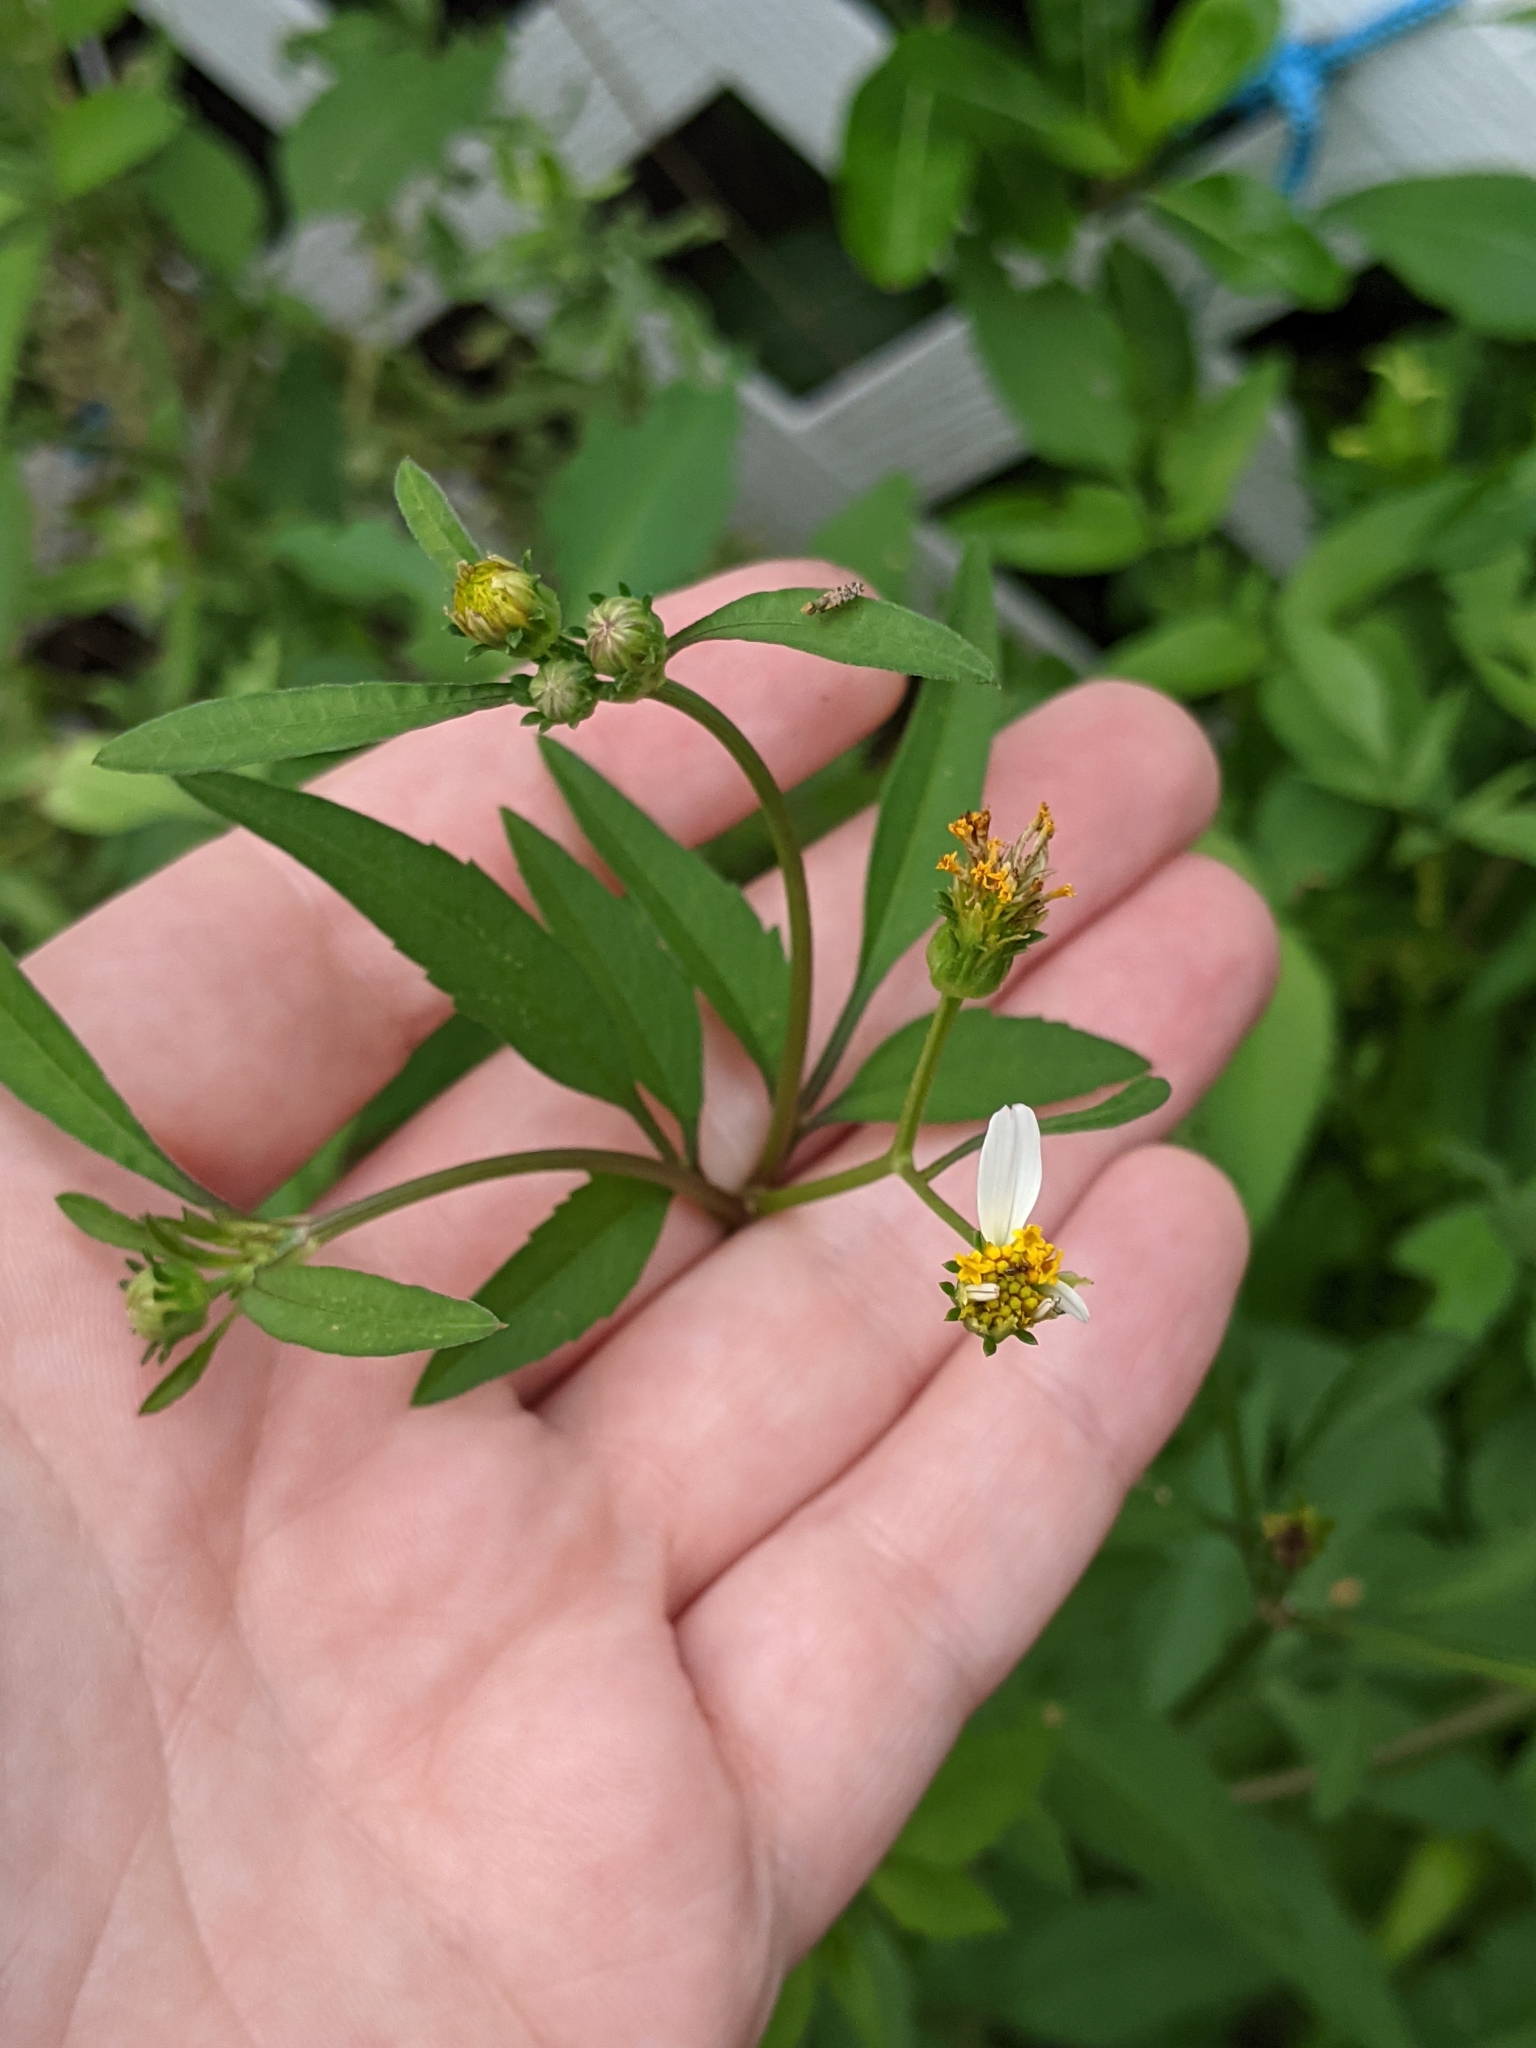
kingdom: Plantae
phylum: Tracheophyta
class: Magnoliopsida
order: Asterales
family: Asteraceae
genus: Bidens
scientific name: Bidens alba
